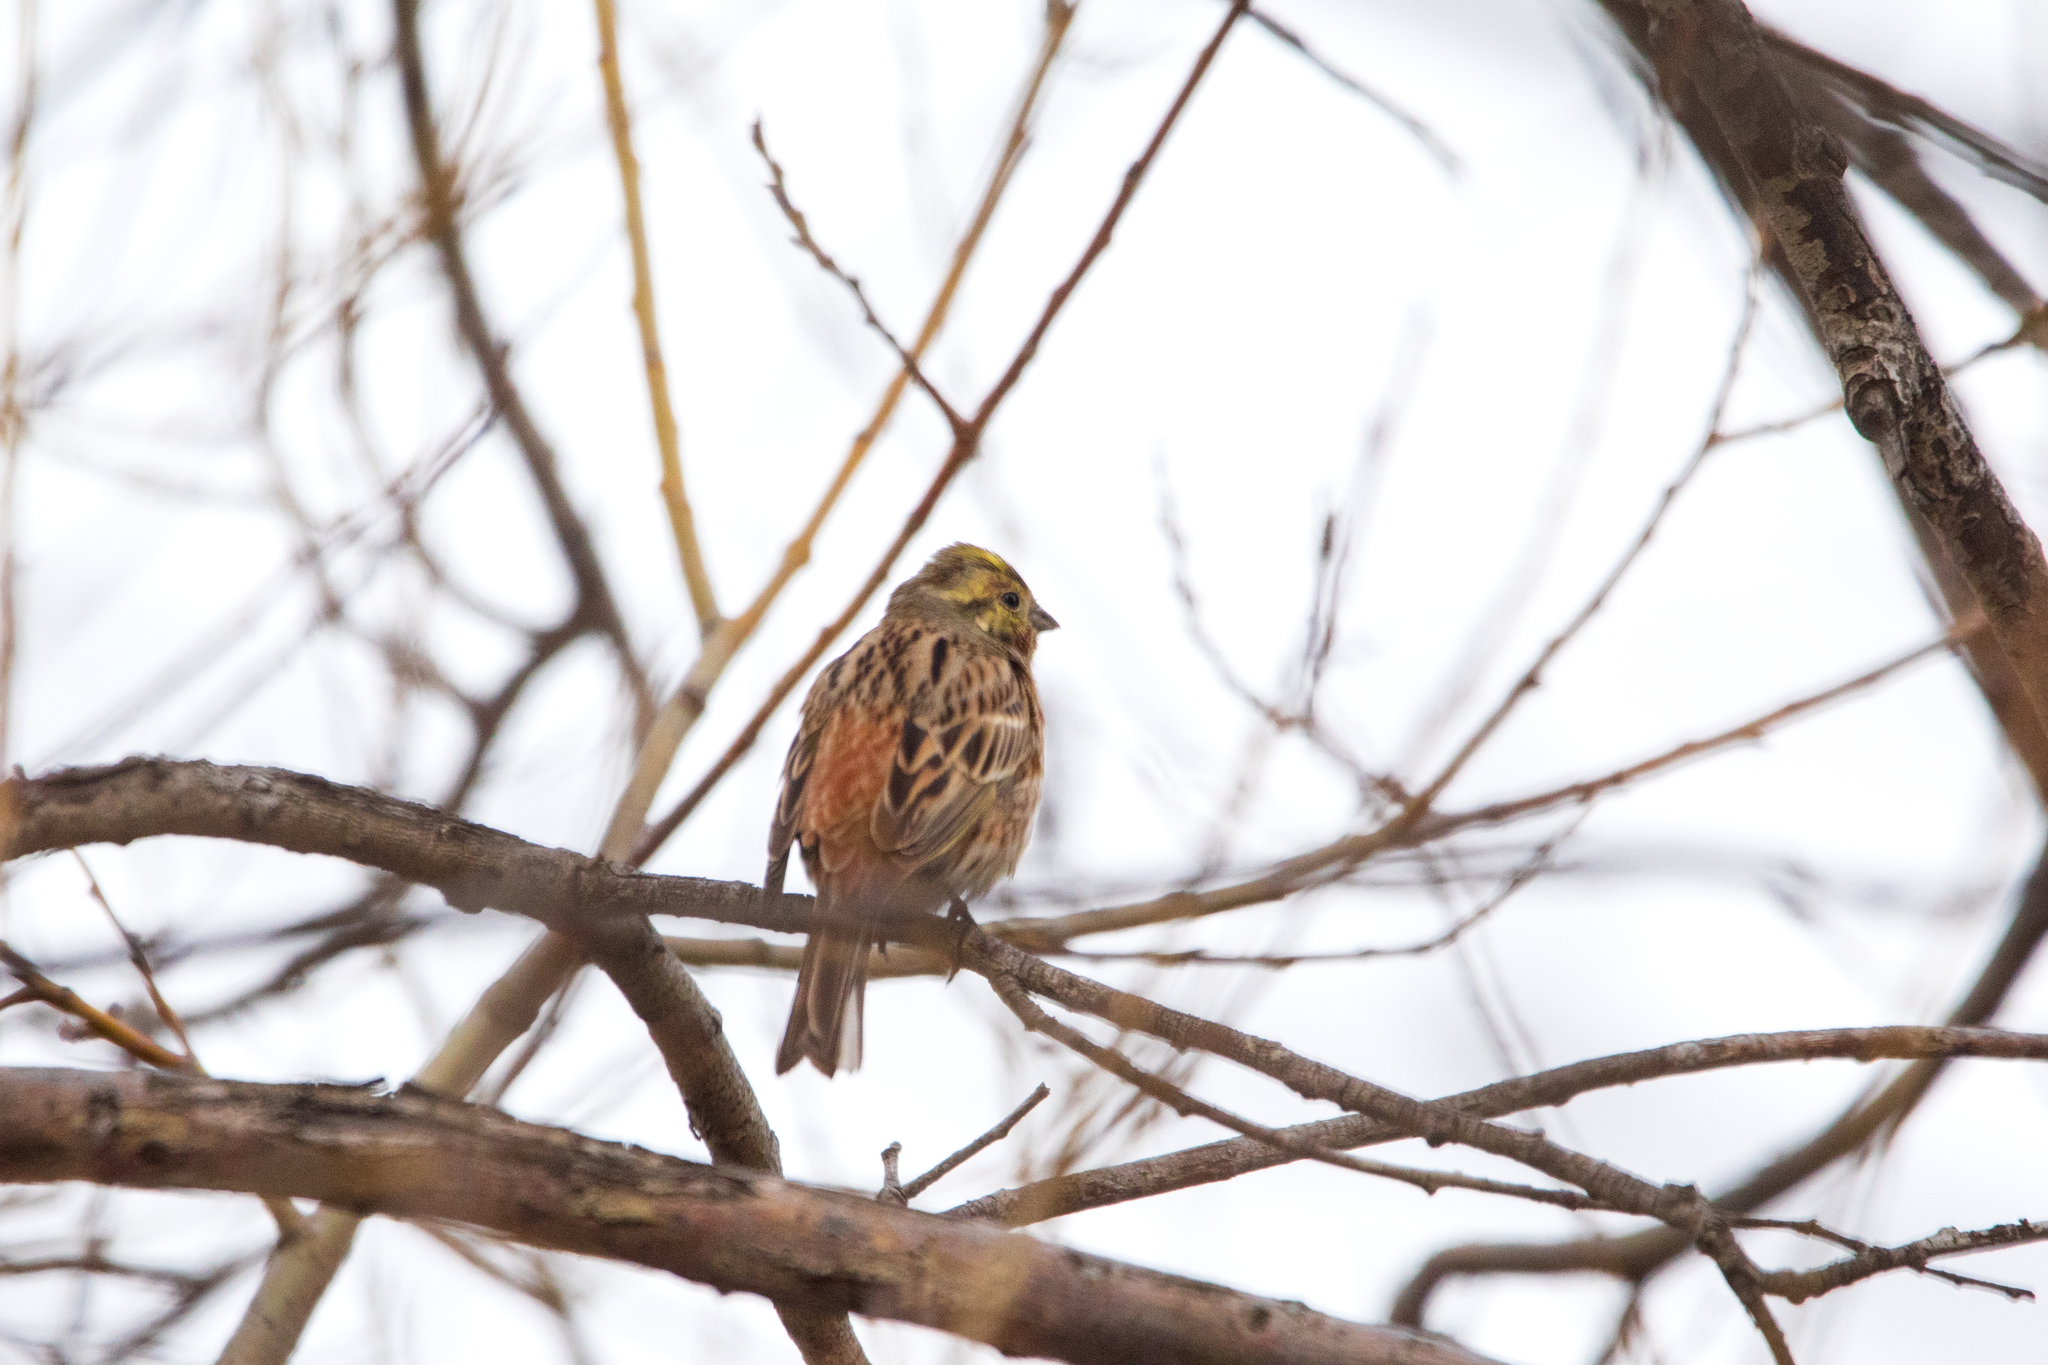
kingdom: Animalia
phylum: Chordata
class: Aves
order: Passeriformes
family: Emberizidae
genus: Emberiza
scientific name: Emberiza
